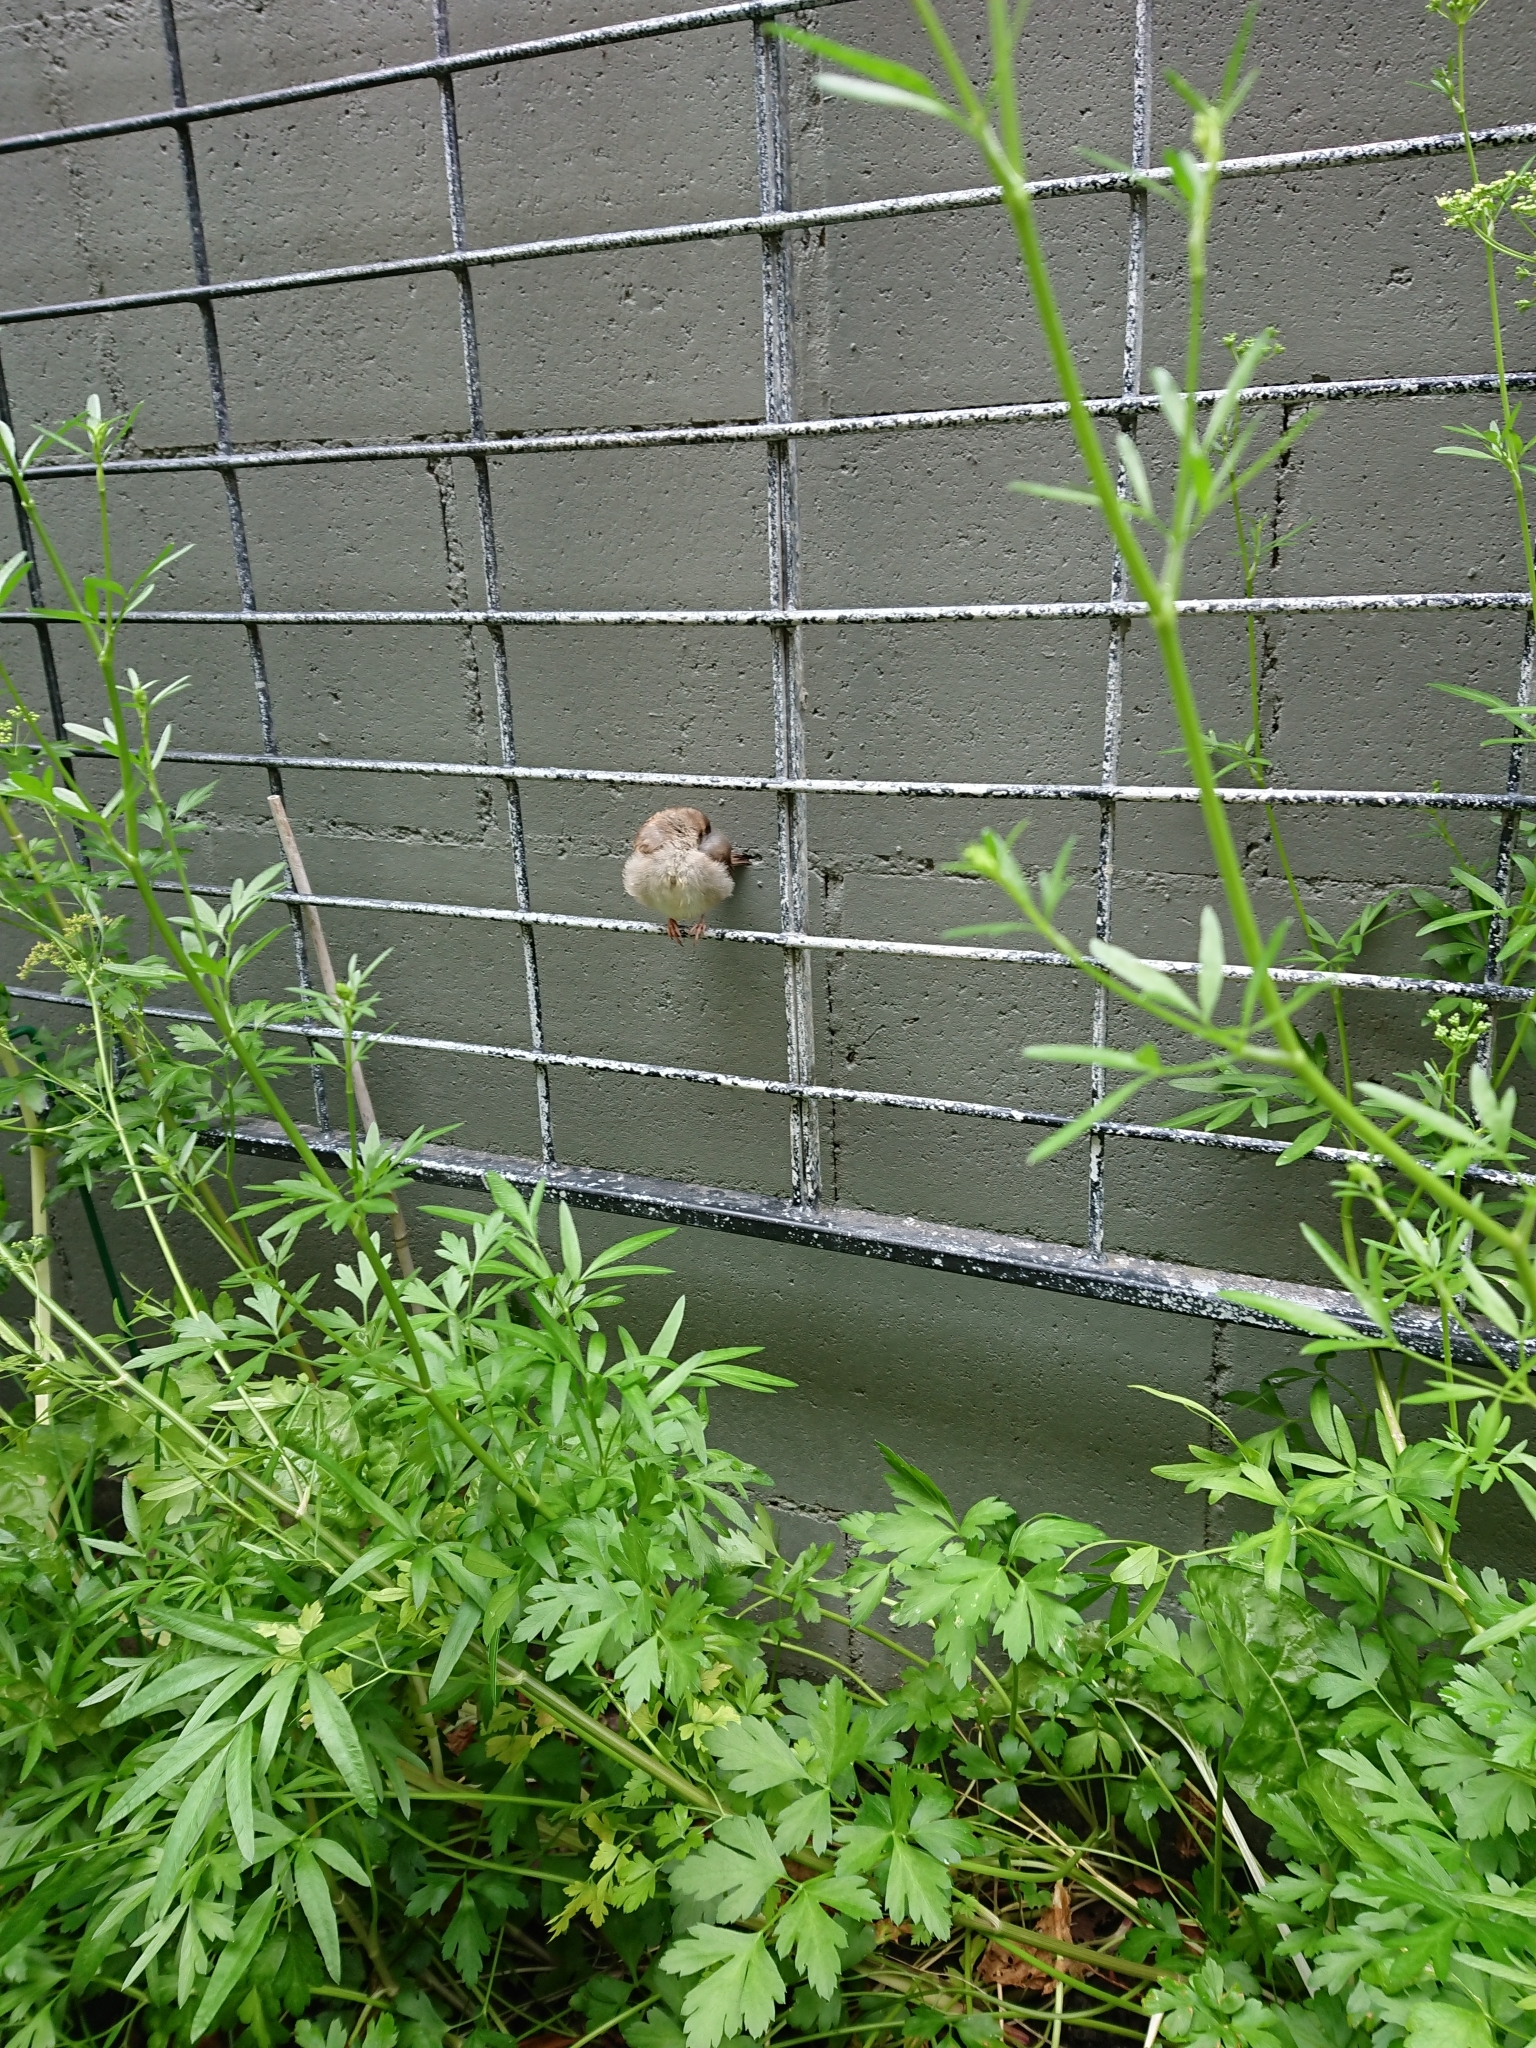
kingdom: Animalia
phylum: Chordata
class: Aves
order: Passeriformes
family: Passeridae
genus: Passer
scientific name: Passer domesticus
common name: House sparrow
